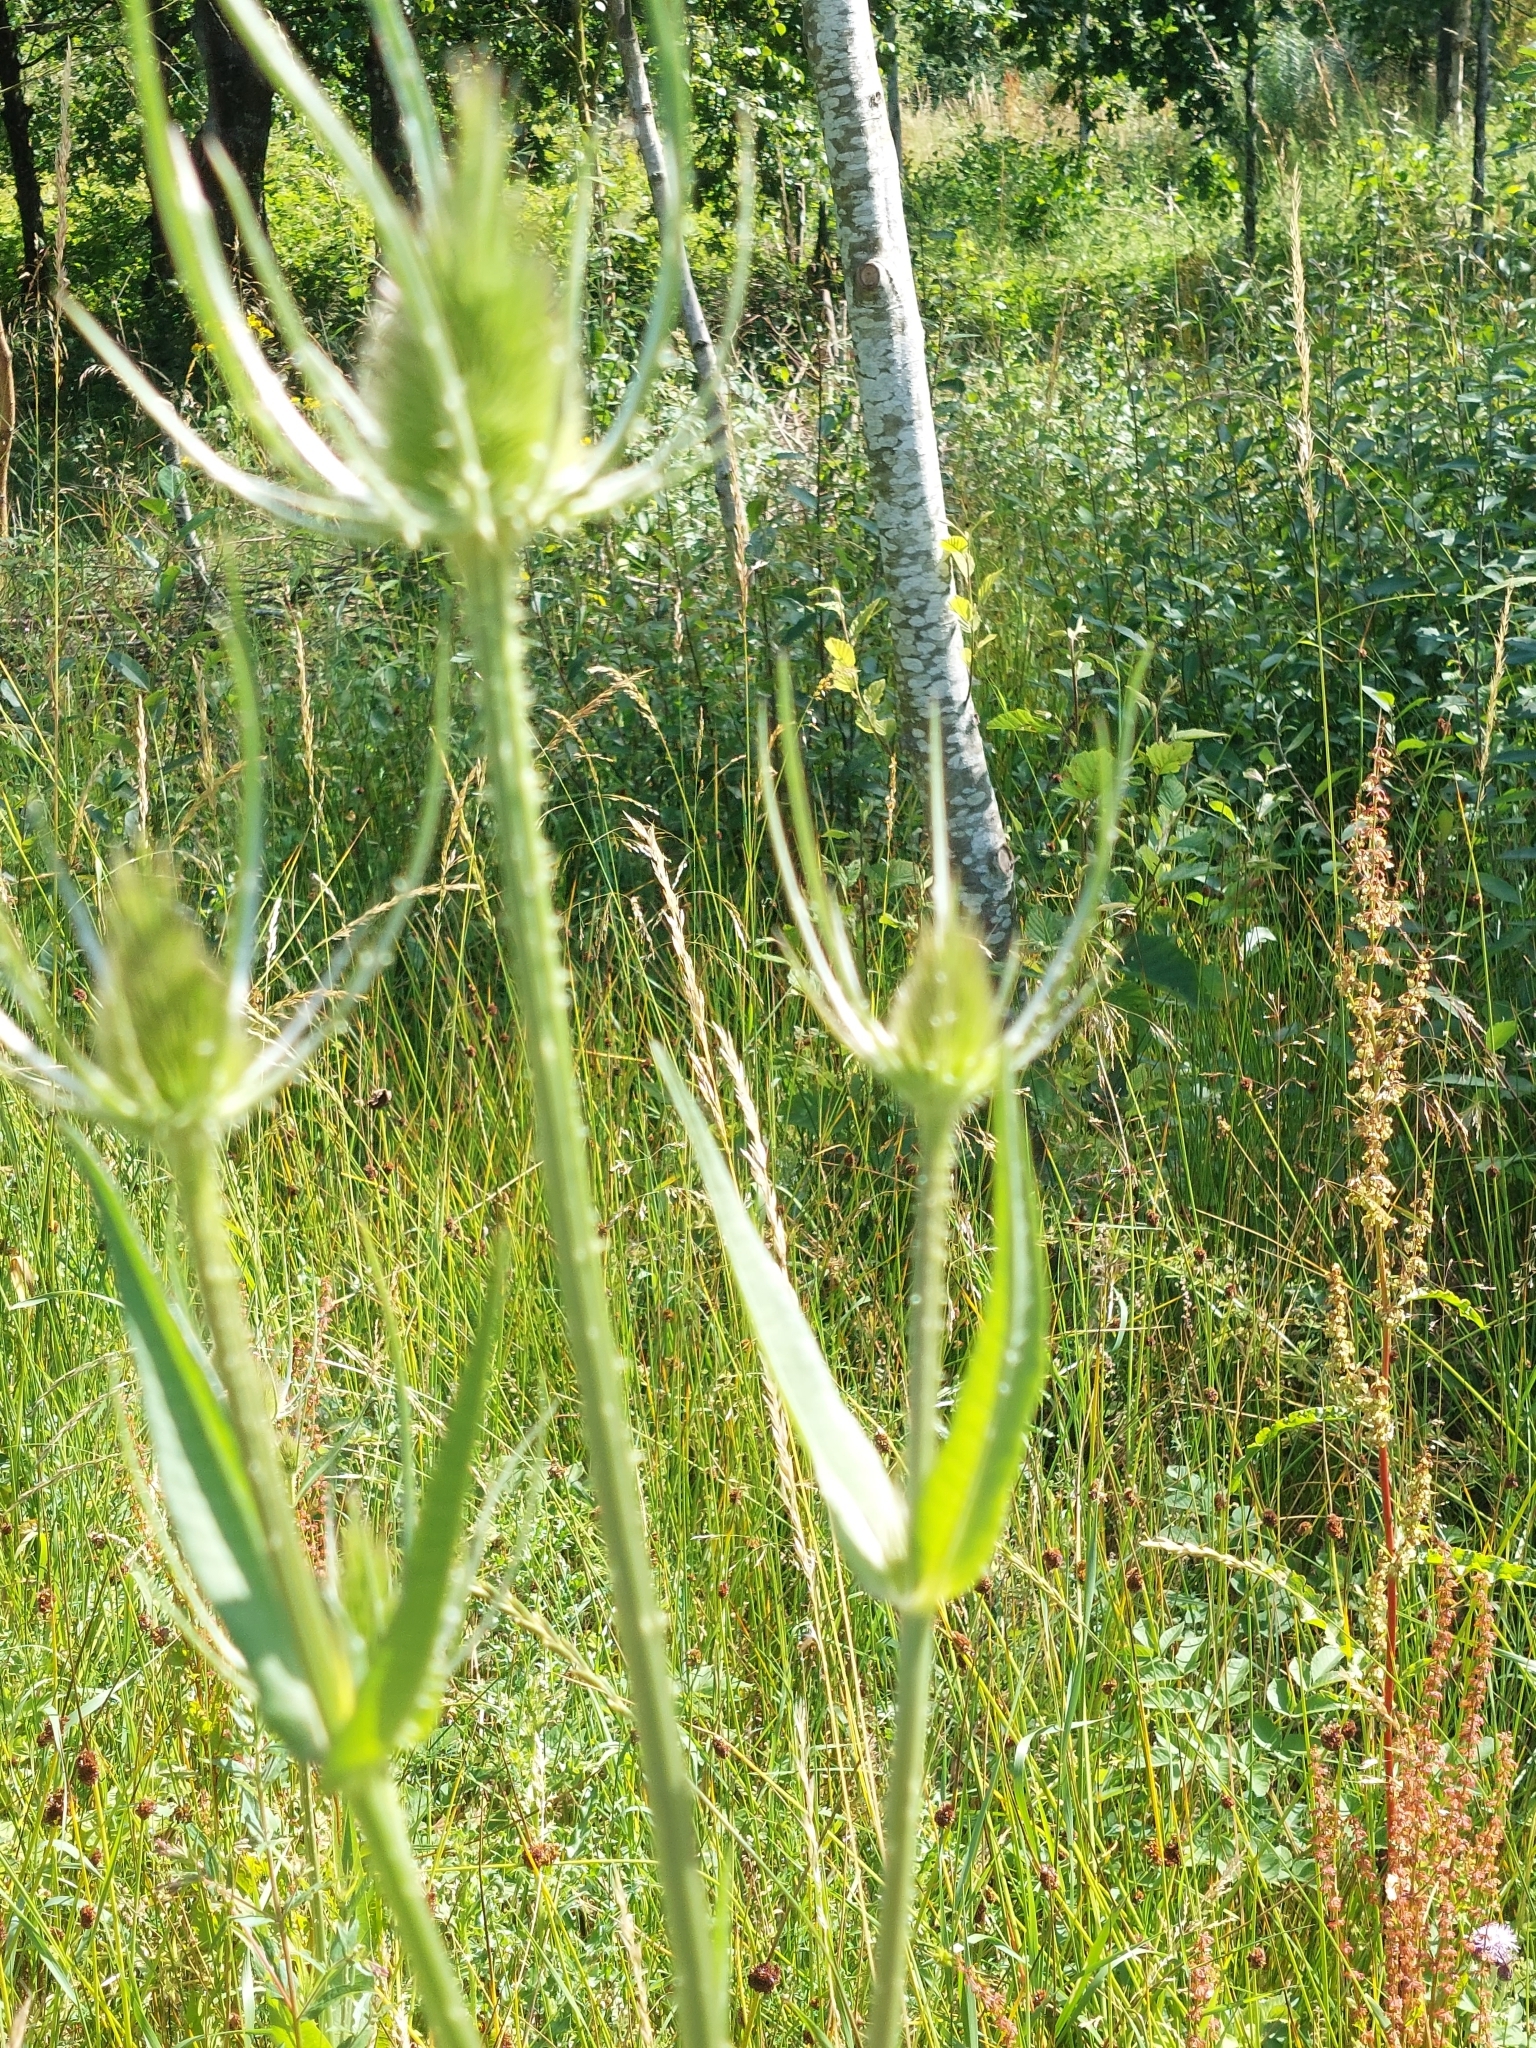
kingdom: Plantae
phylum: Tracheophyta
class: Magnoliopsida
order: Dipsacales
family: Caprifoliaceae
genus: Dipsacus
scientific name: Dipsacus fullonum
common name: Teasel
